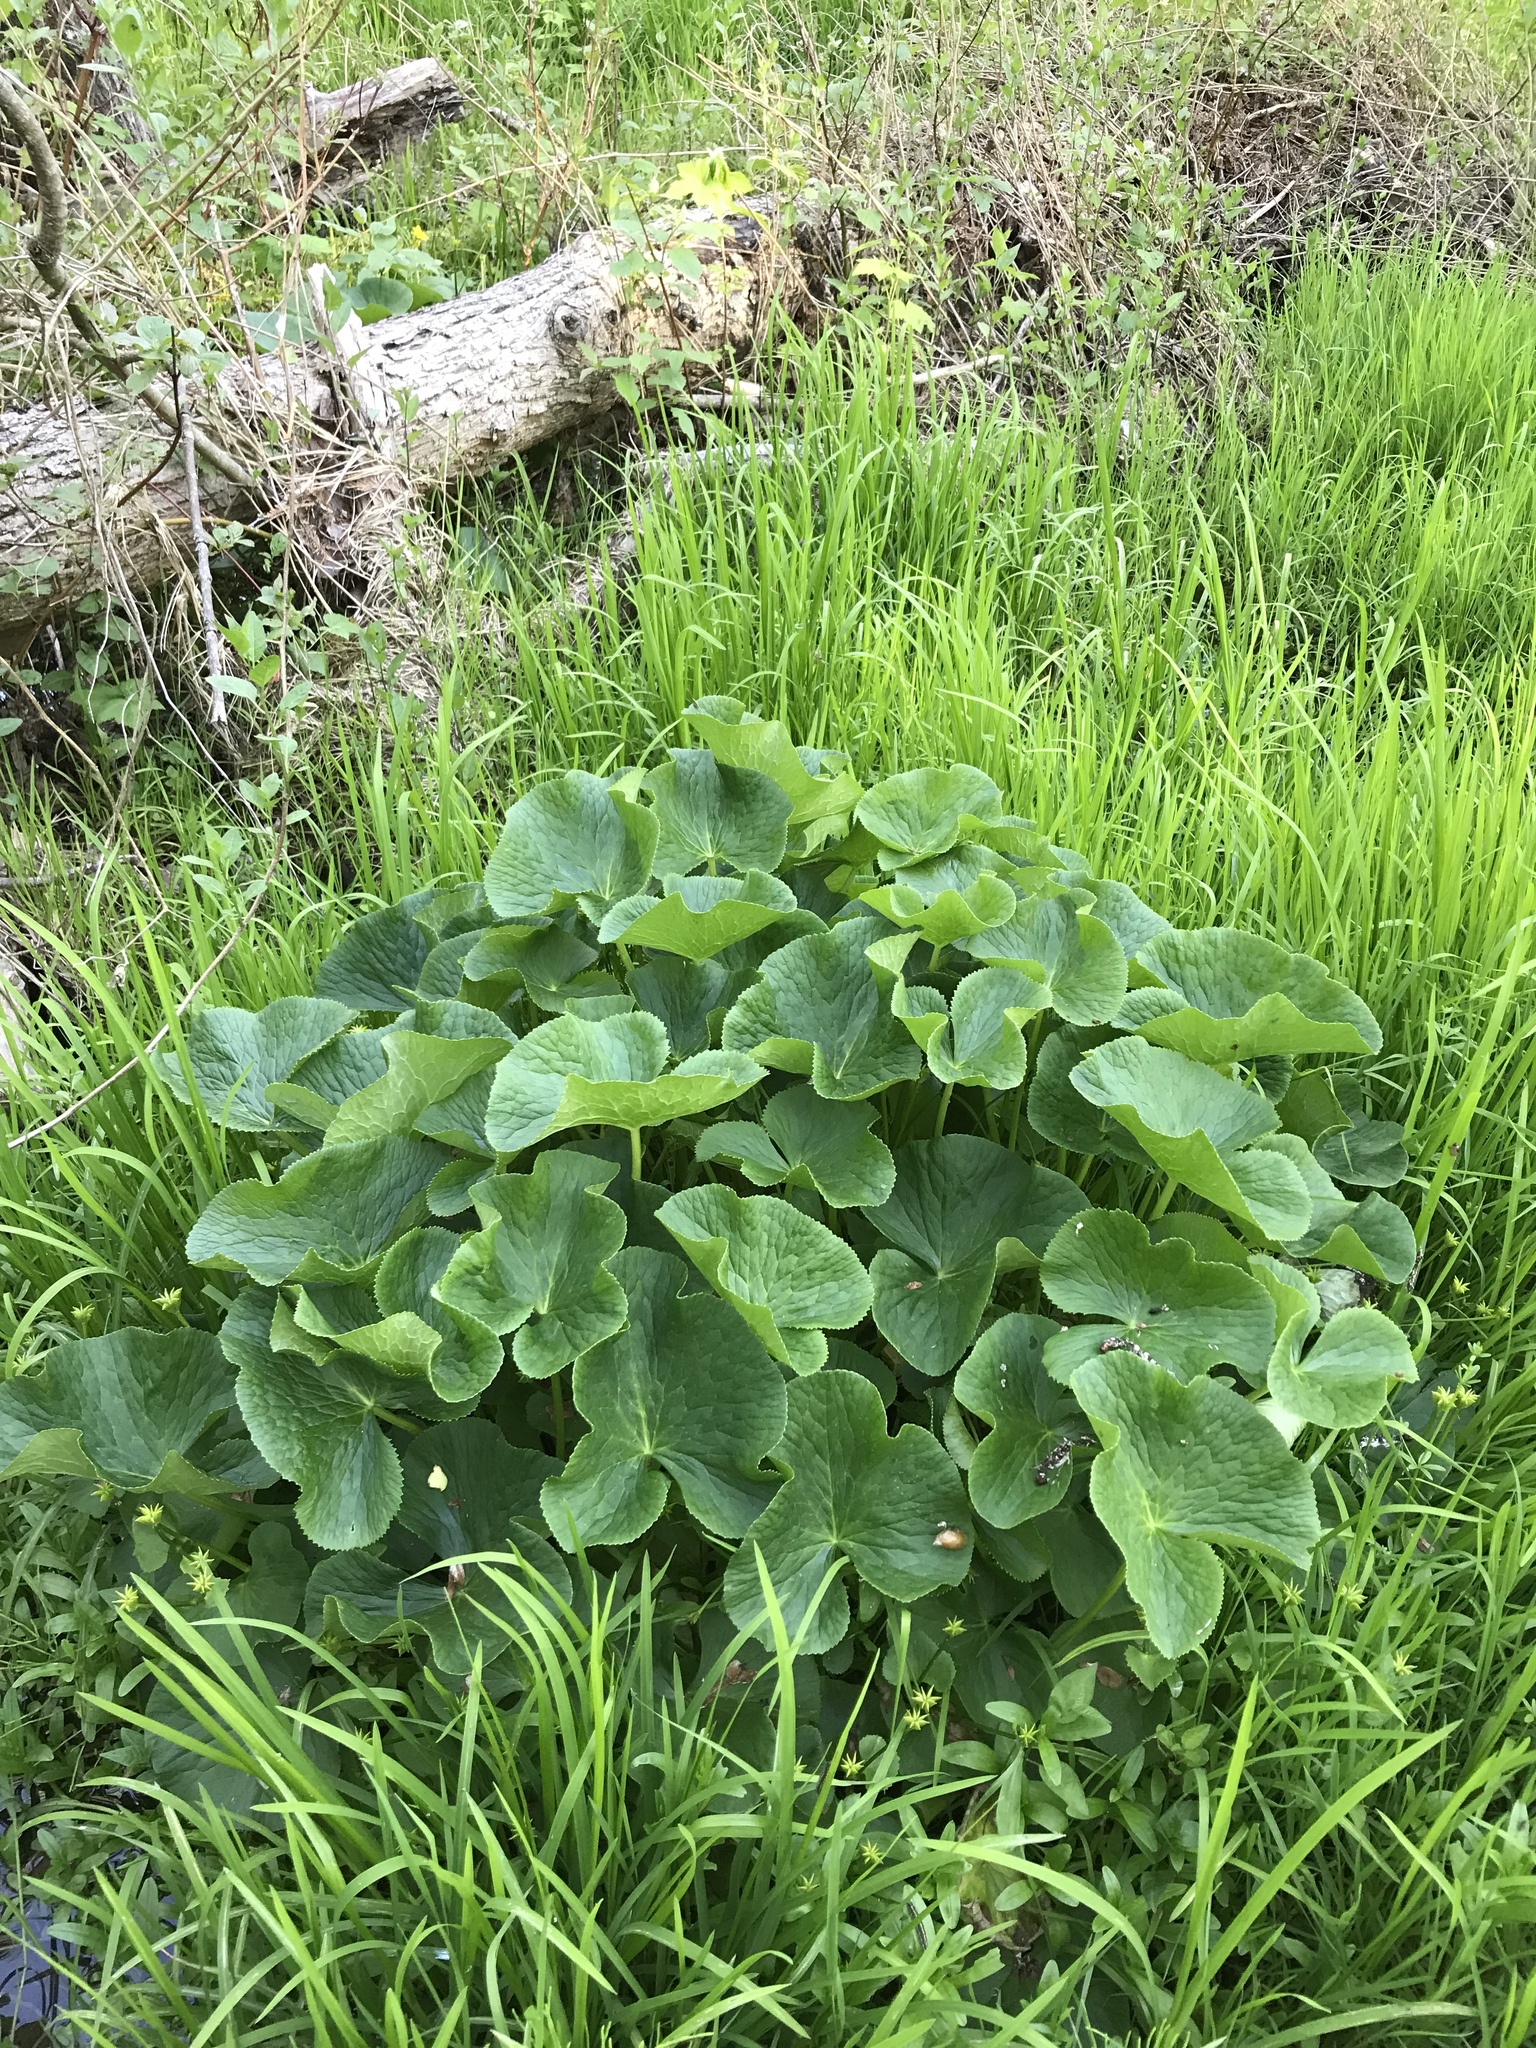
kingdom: Plantae
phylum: Tracheophyta
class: Magnoliopsida
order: Ranunculales
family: Ranunculaceae
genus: Caltha
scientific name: Caltha palustris
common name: Marsh marigold
